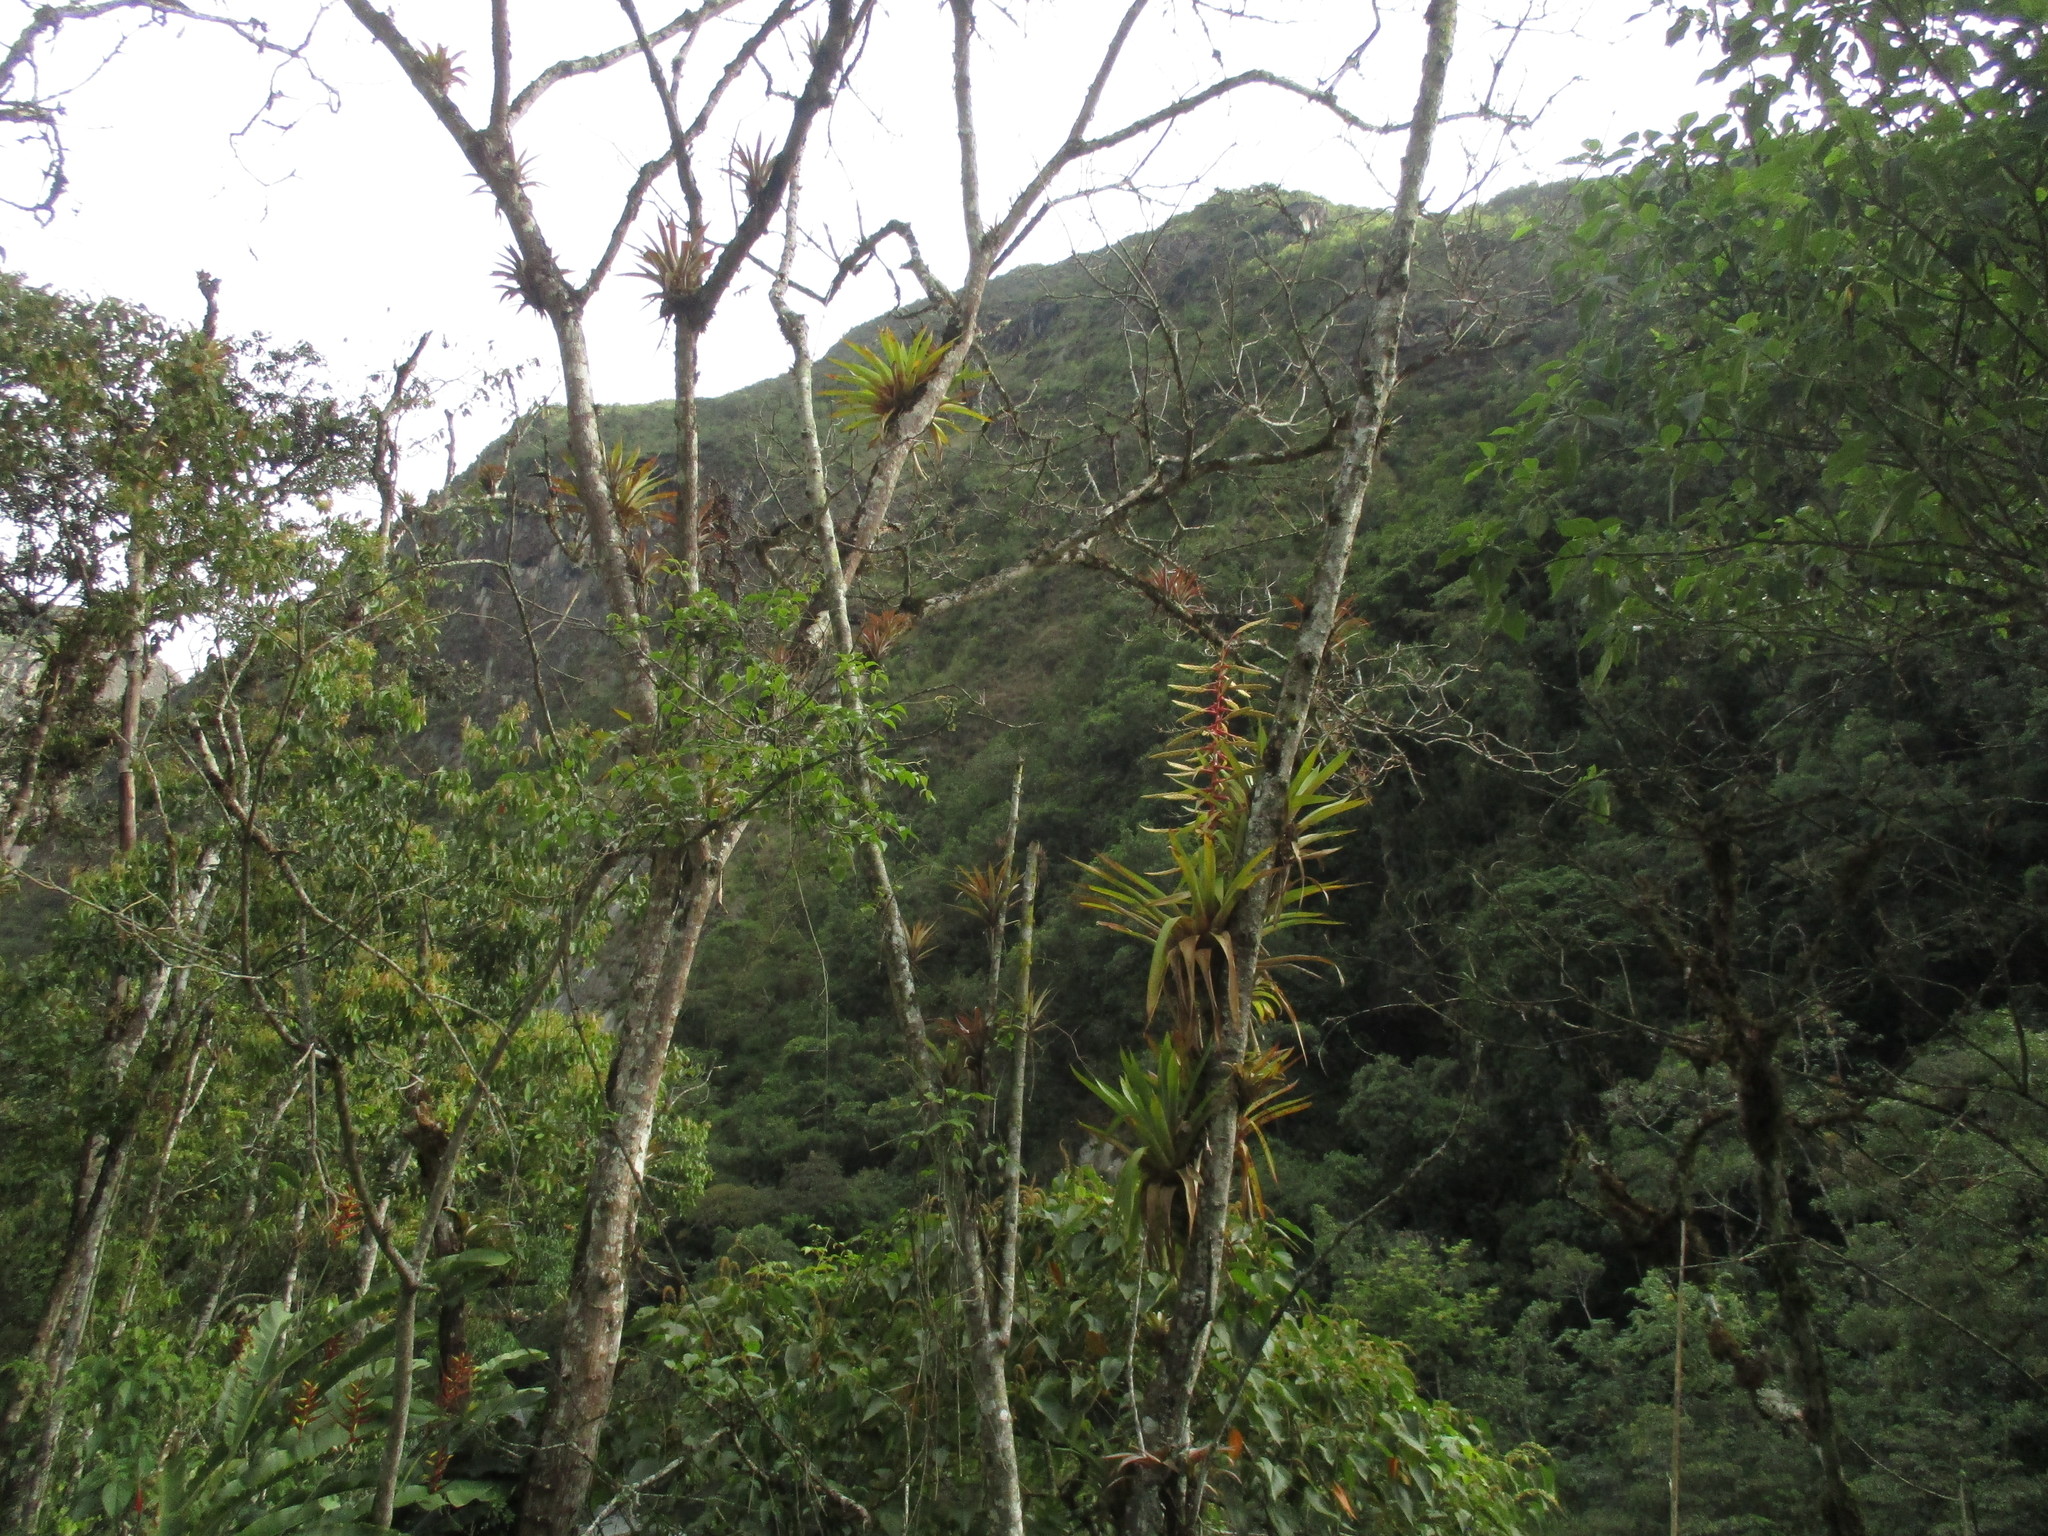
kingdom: Plantae
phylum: Tracheophyta
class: Liliopsida
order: Poales
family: Bromeliaceae
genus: Tillandsia
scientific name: Tillandsia fendleri
